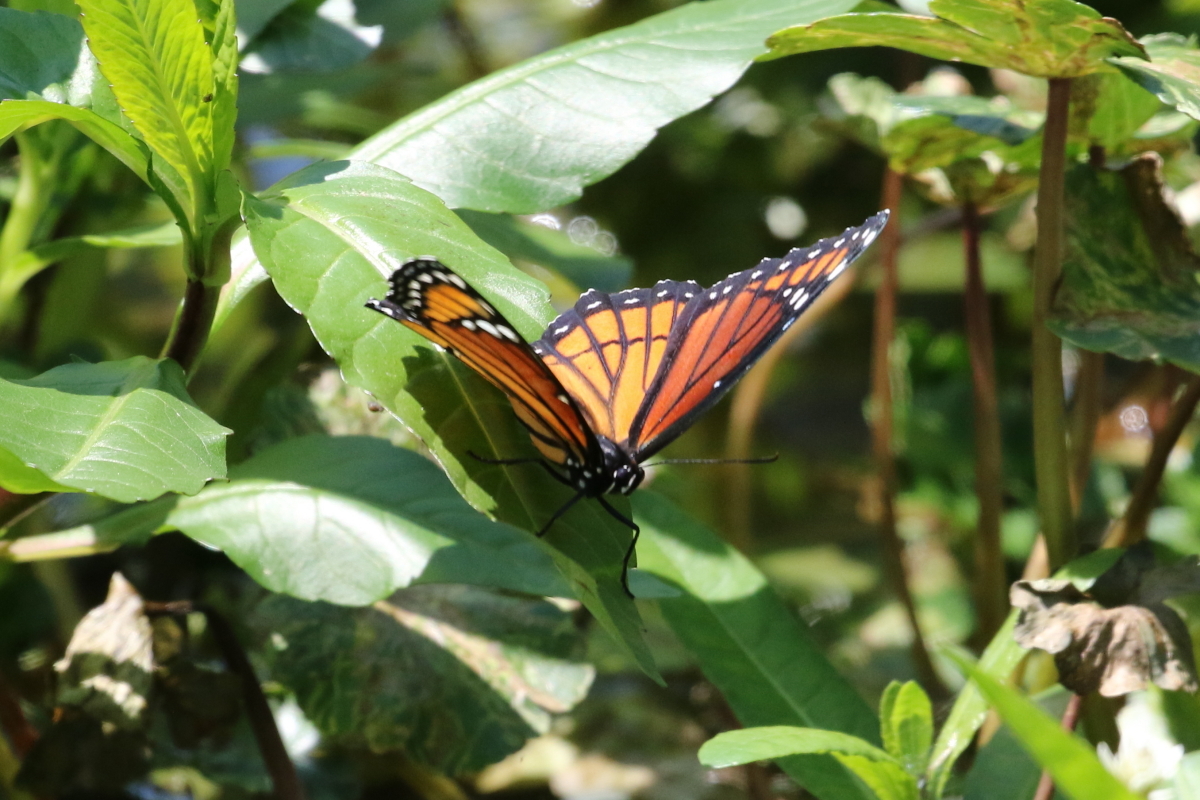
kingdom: Animalia
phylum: Arthropoda
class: Insecta
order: Lepidoptera
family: Nymphalidae
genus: Limenitis
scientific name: Limenitis archippus
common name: Viceroy
